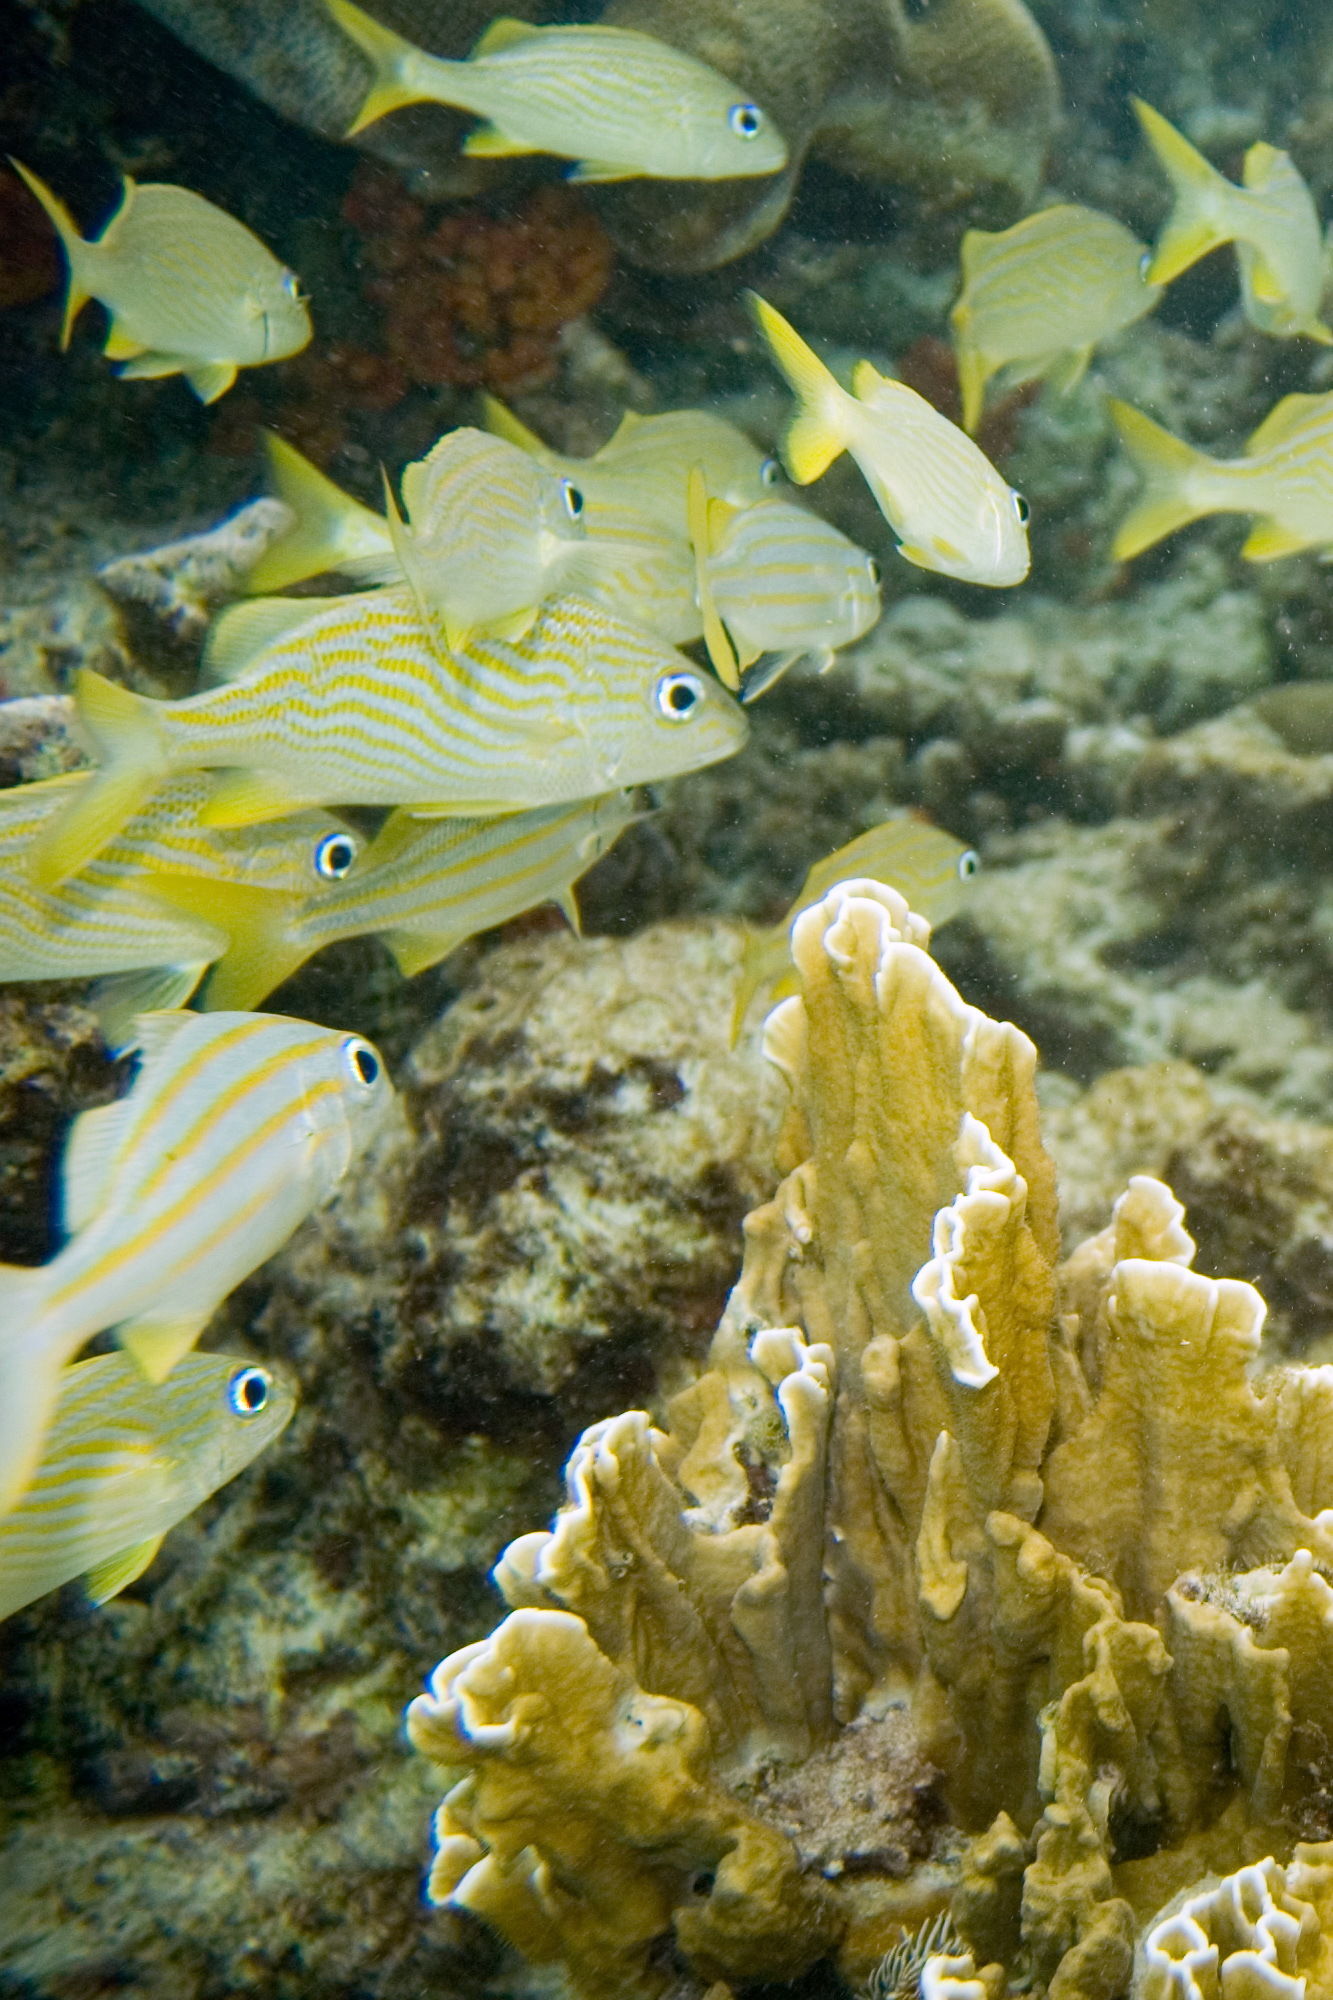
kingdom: Animalia
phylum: Cnidaria
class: Hydrozoa
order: Anthoathecata
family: Milleporidae
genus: Millepora
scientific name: Millepora complanata
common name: Bladed fire coral
